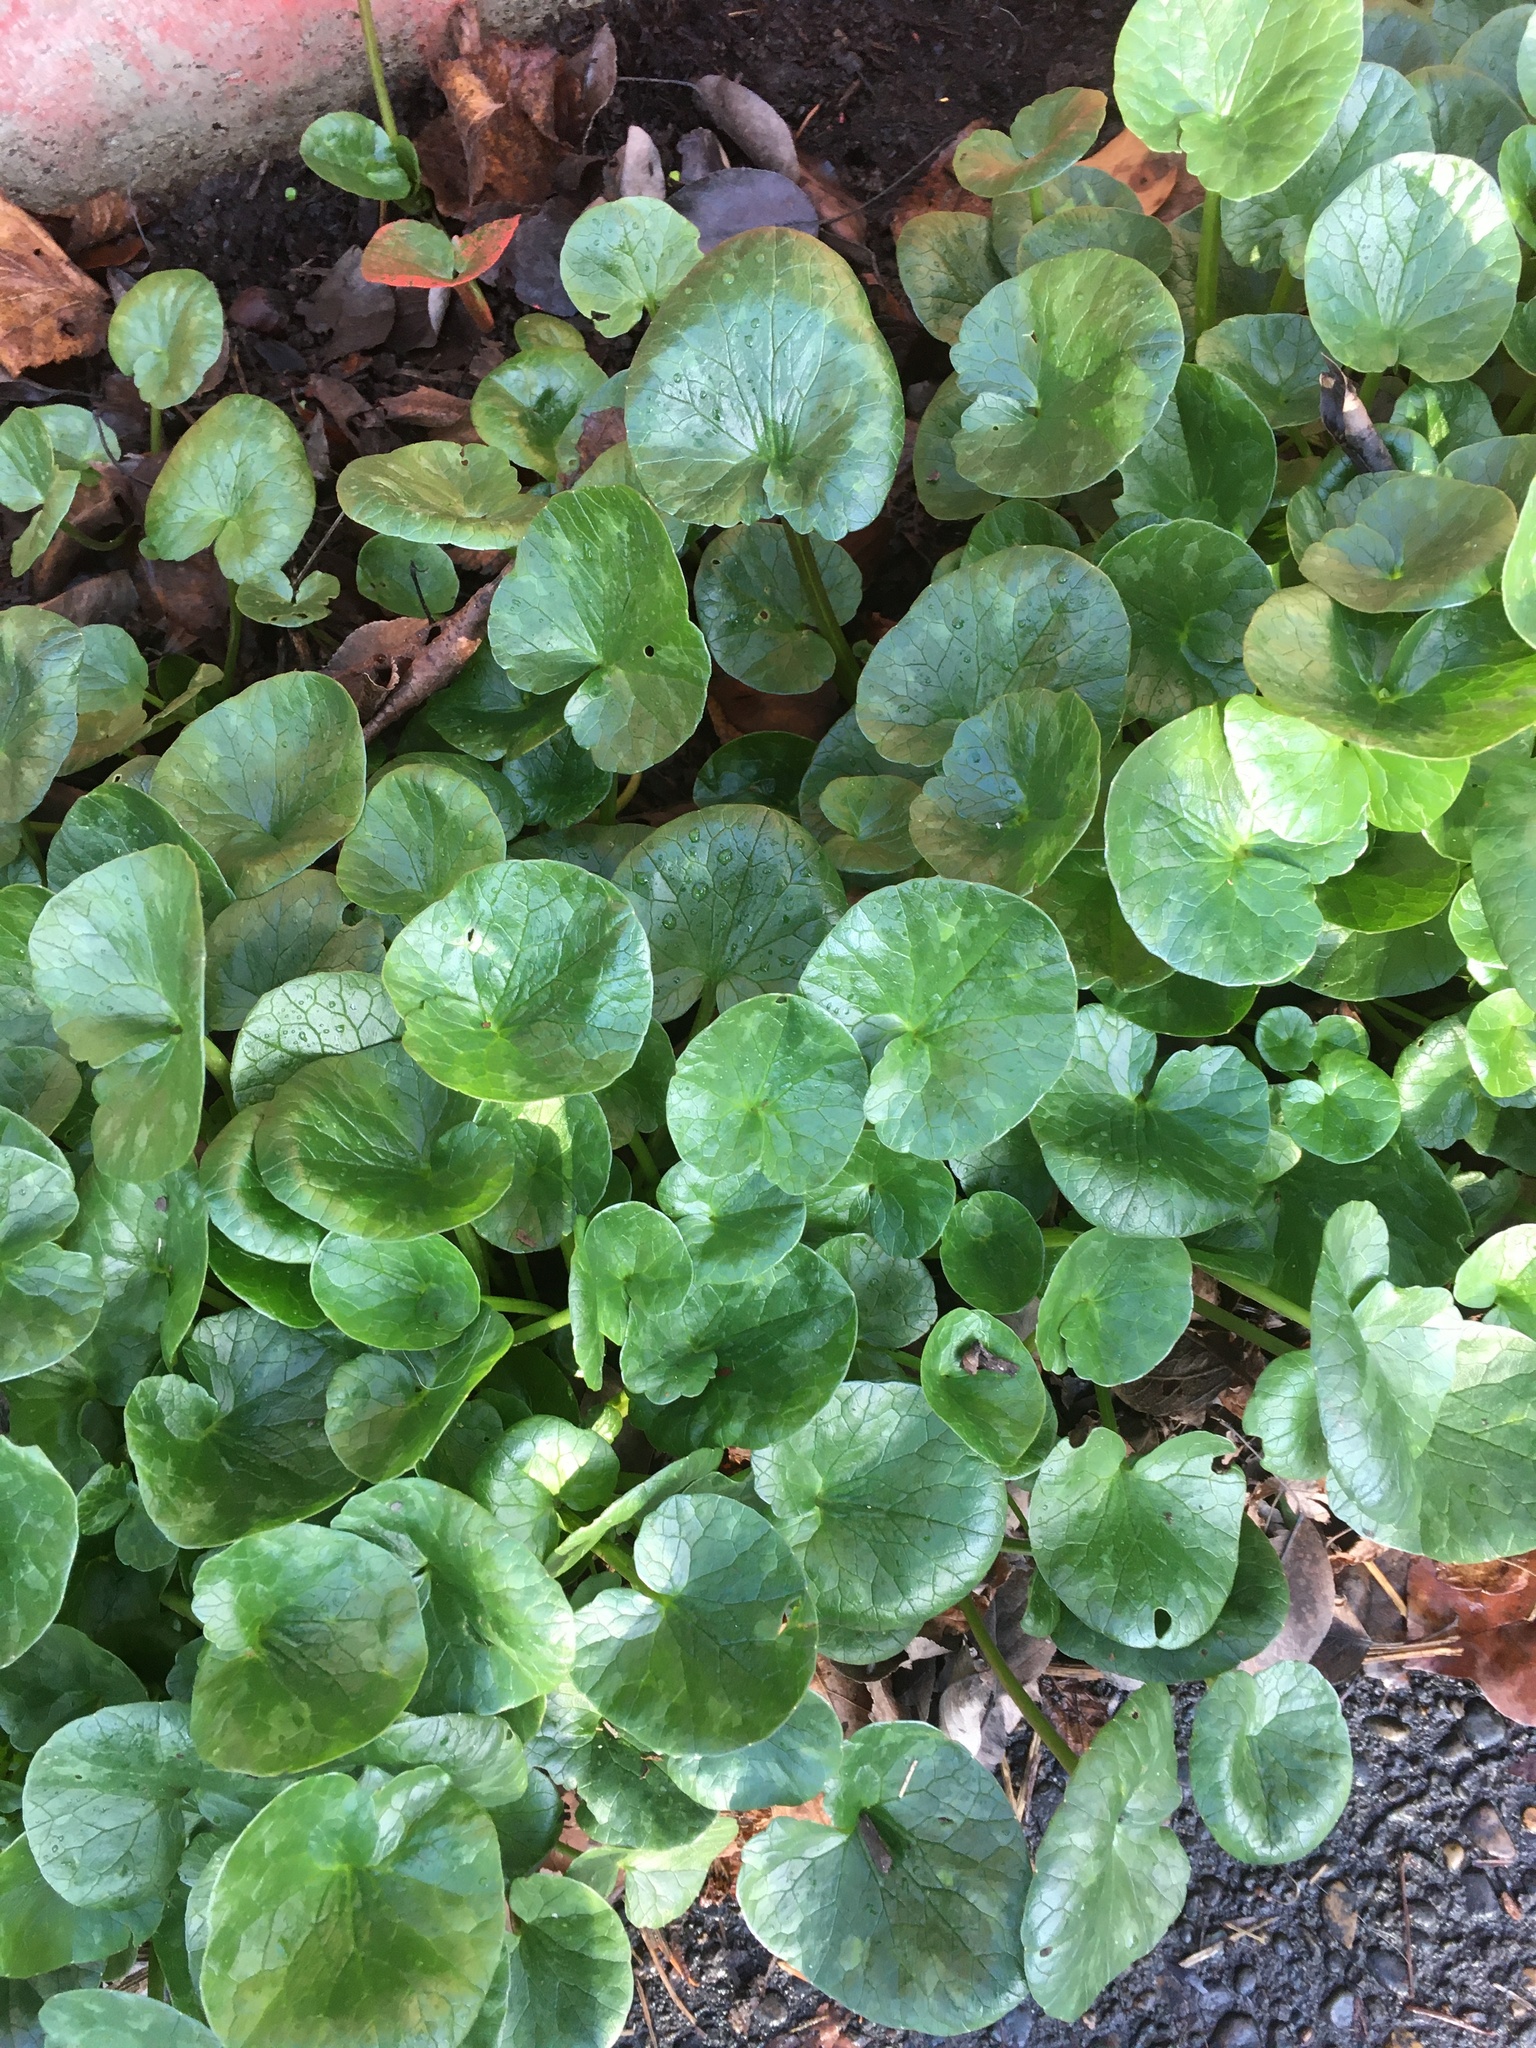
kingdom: Plantae
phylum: Tracheophyta
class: Magnoliopsida
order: Ranunculales
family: Ranunculaceae
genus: Ficaria
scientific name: Ficaria verna
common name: Lesser celandine
